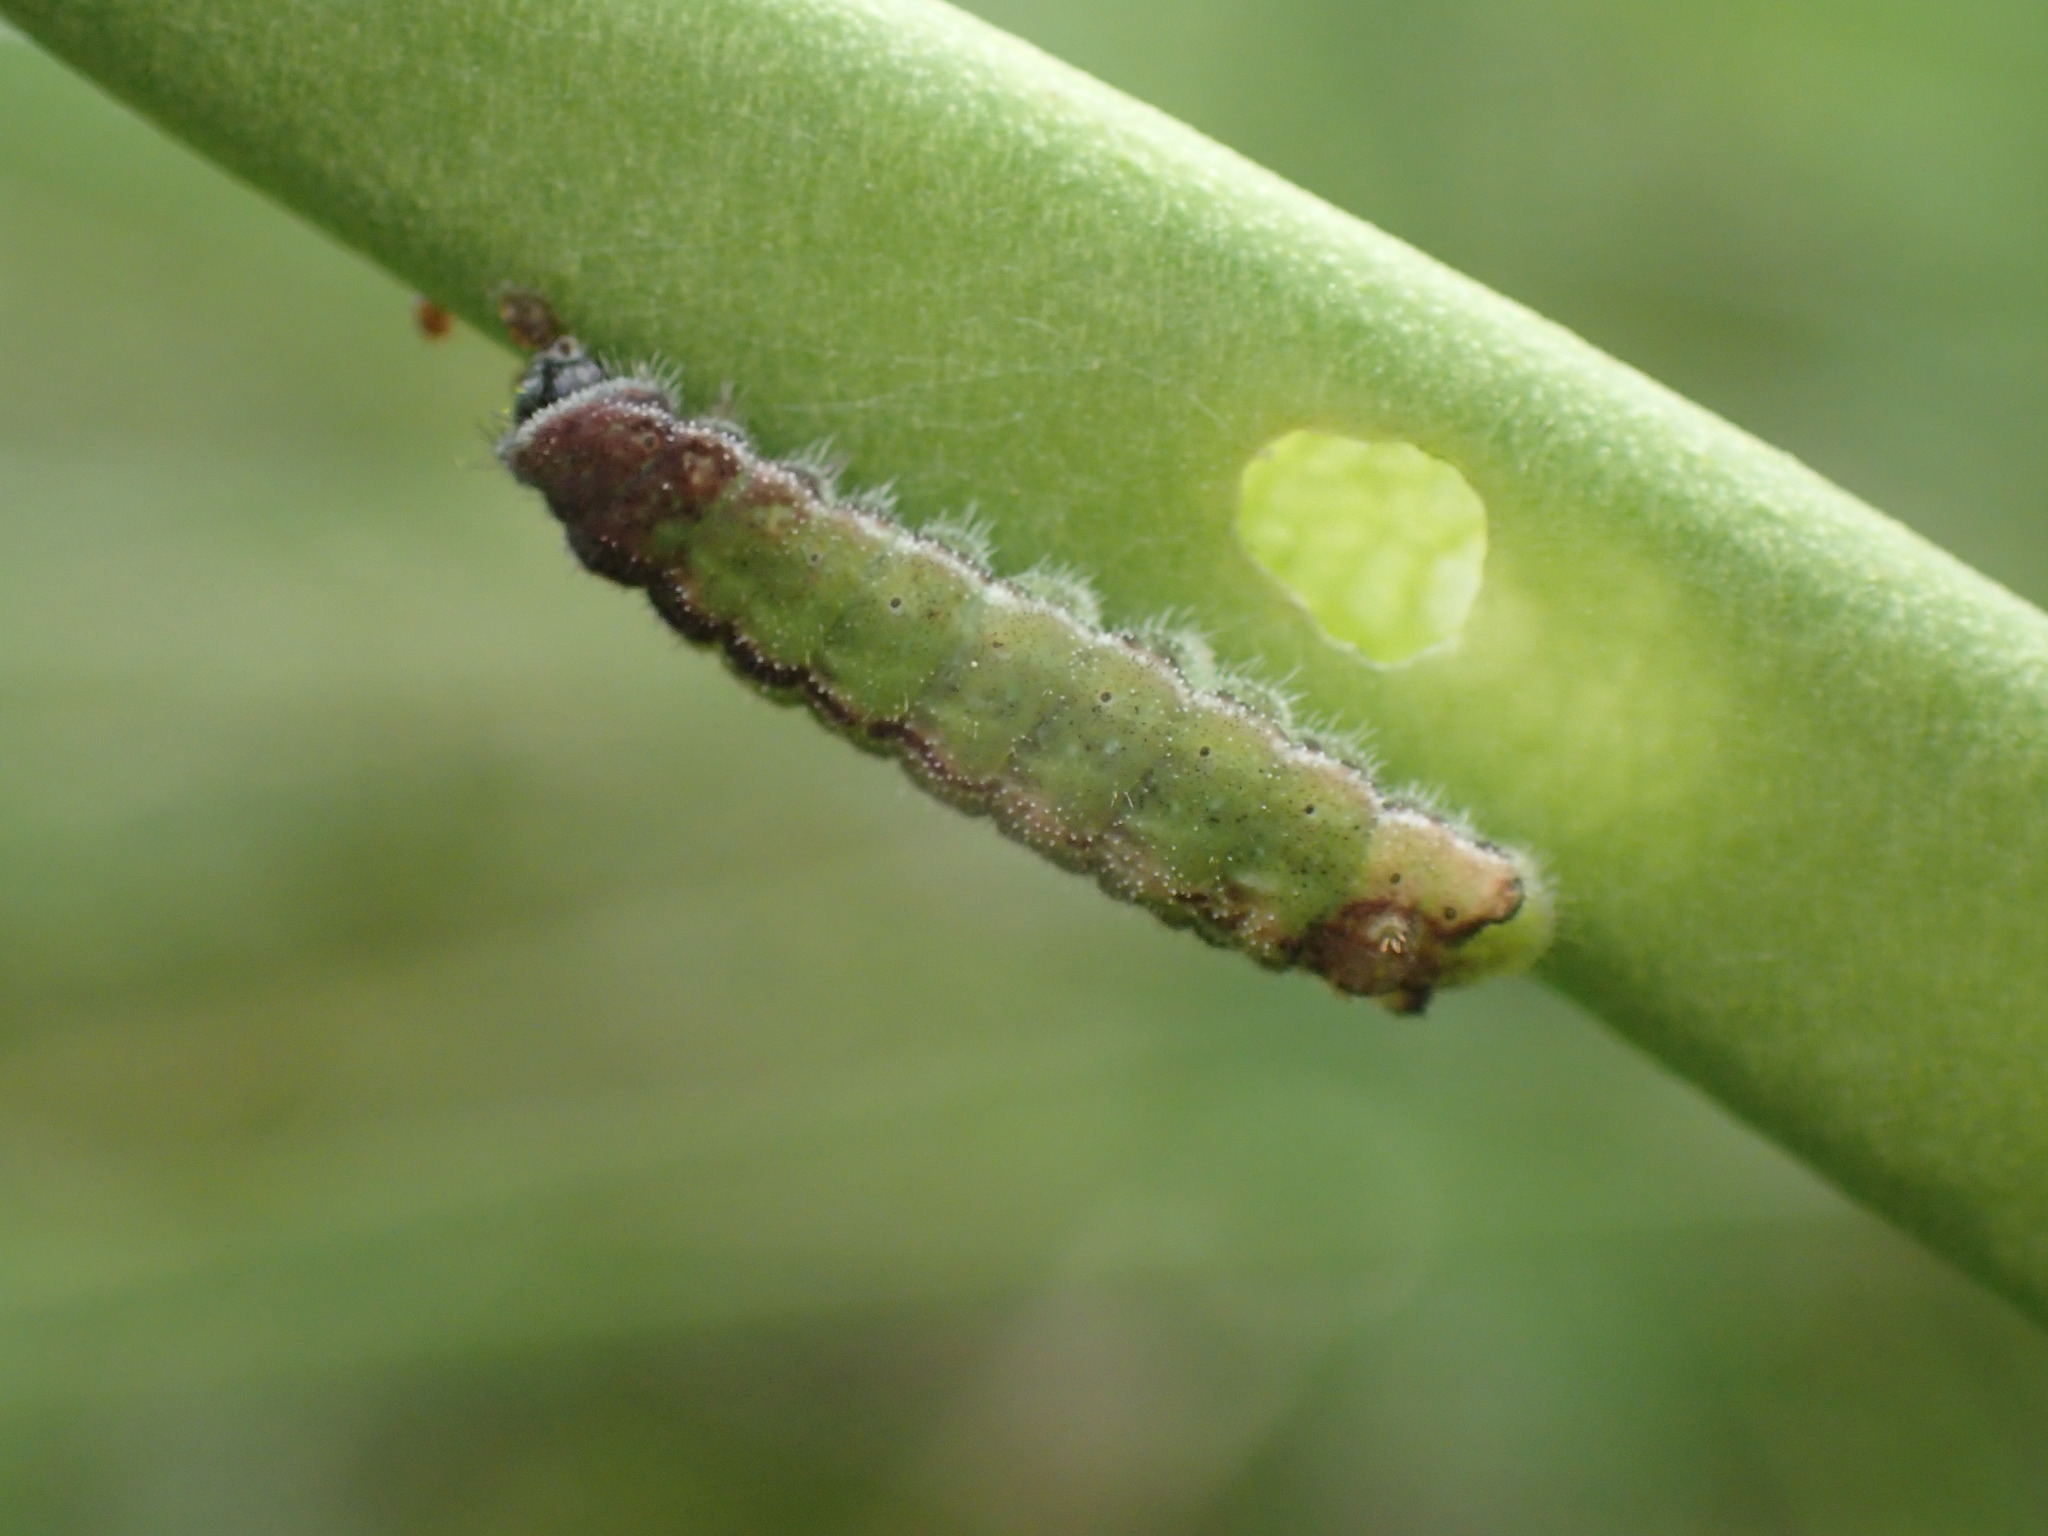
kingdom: Animalia
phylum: Arthropoda
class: Insecta
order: Lepidoptera
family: Lycaenidae
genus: Euchrysops
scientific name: Euchrysops malathana
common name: Common smoky blue
